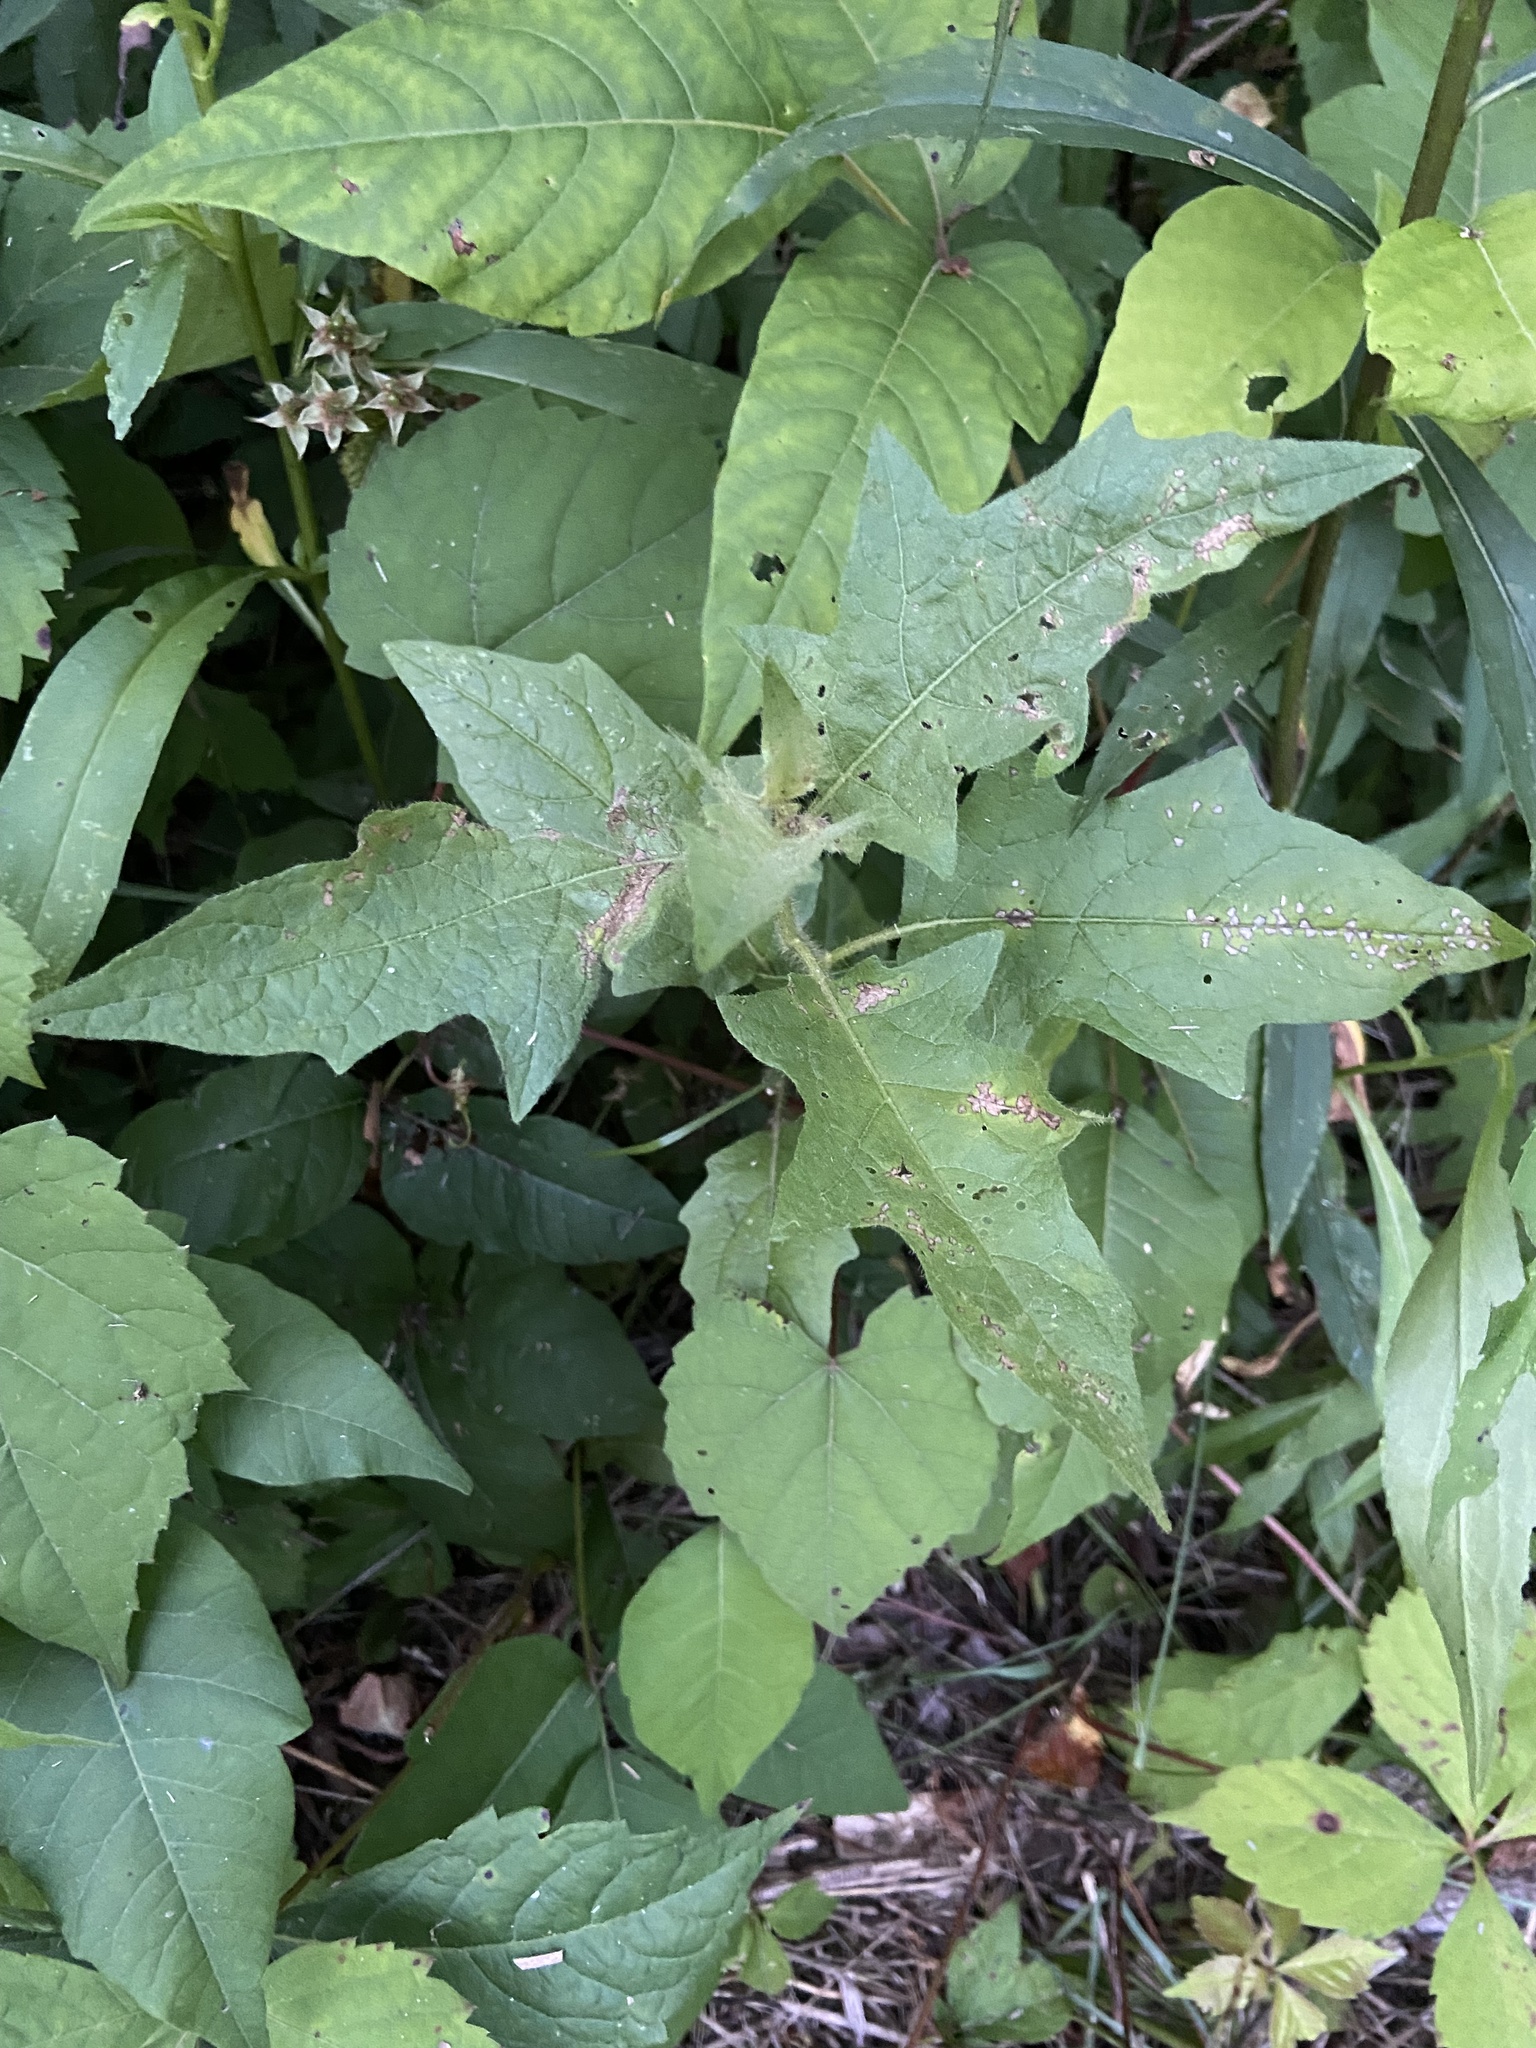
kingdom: Plantae
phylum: Tracheophyta
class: Magnoliopsida
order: Solanales
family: Solanaceae
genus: Solanum
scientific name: Solanum carolinense
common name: Horse-nettle
